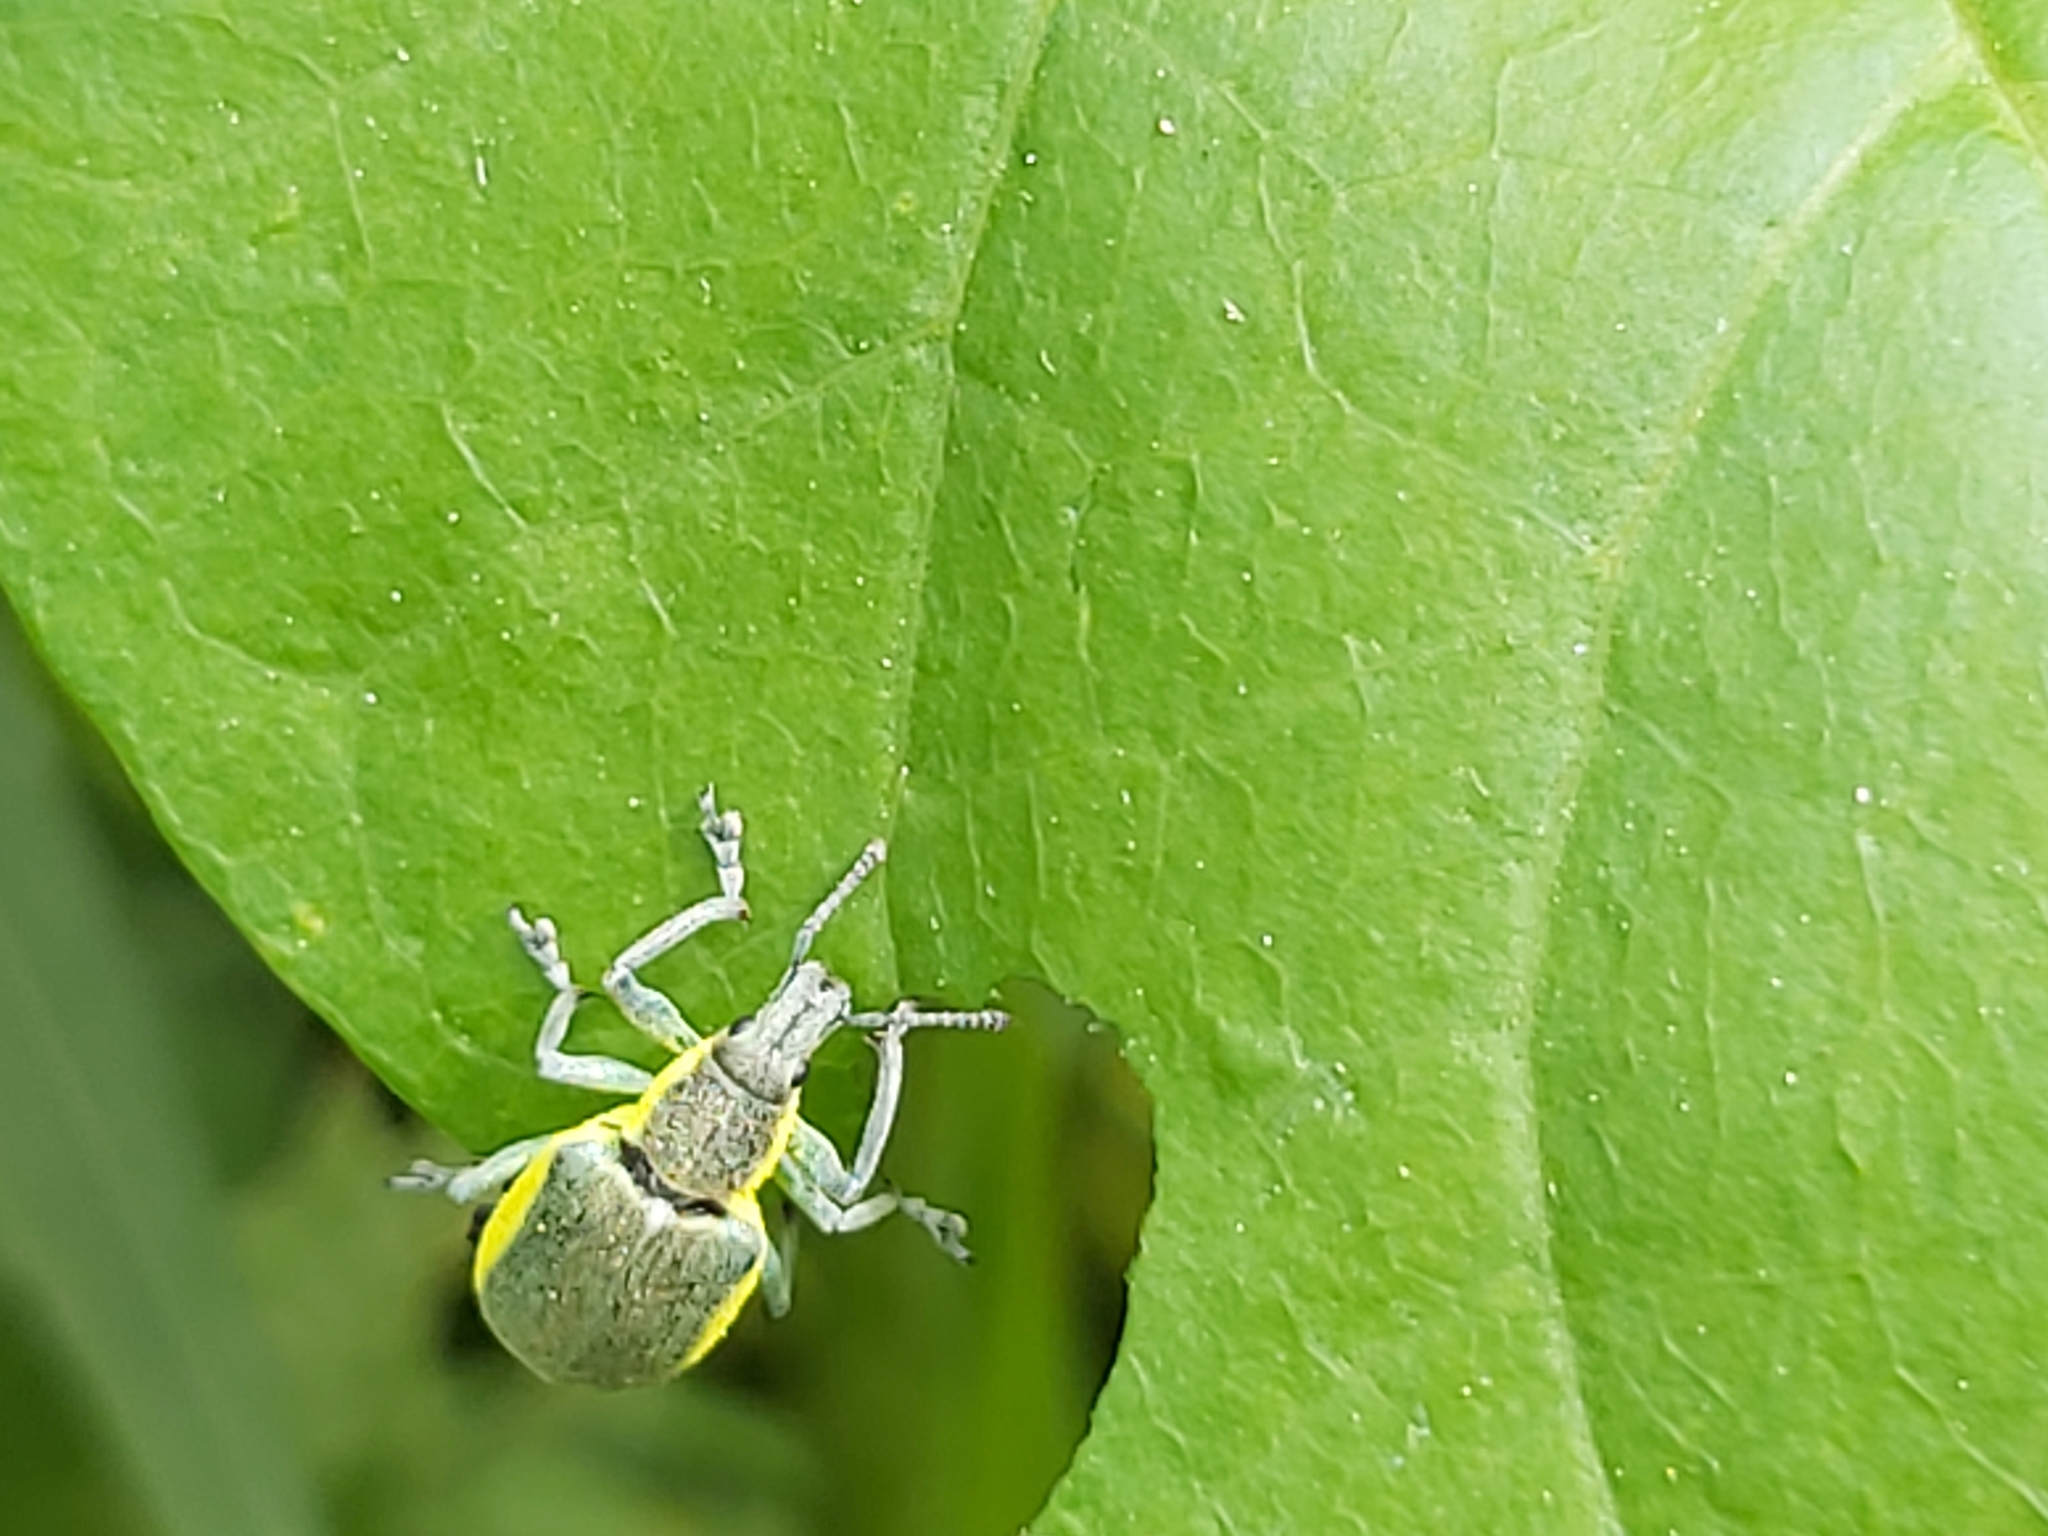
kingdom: Animalia
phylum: Arthropoda
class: Insecta
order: Coleoptera
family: Curculionidae
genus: Chlorophanus
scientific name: Chlorophanus viridis
